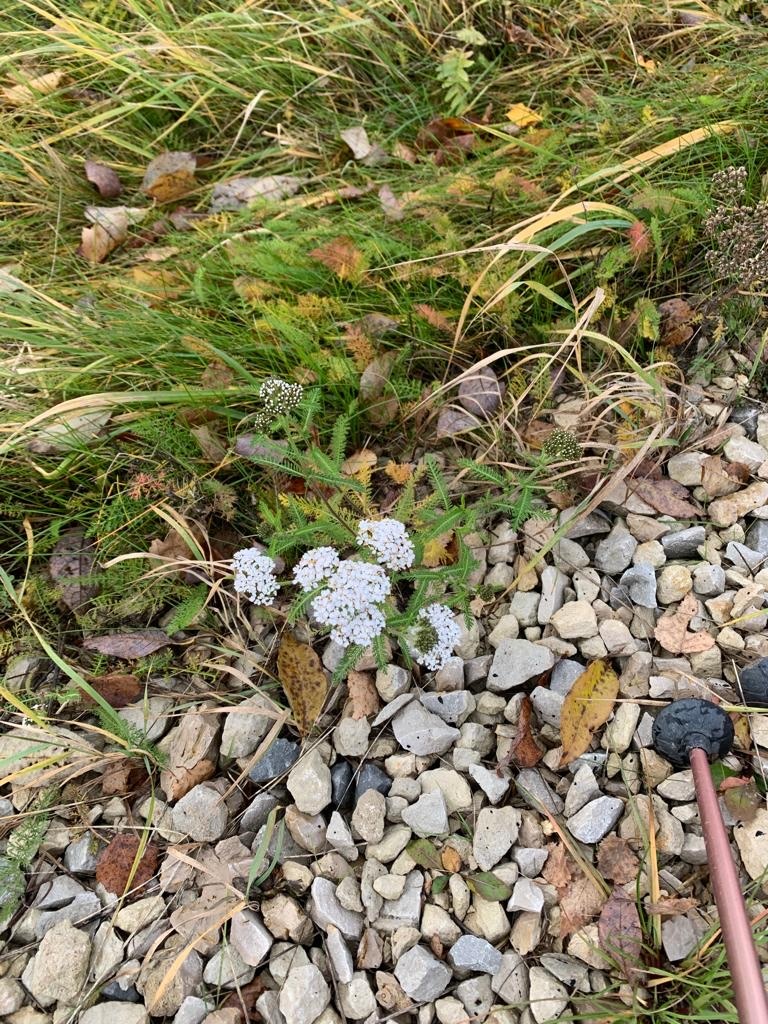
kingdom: Plantae
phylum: Tracheophyta
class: Magnoliopsida
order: Asterales
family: Asteraceae
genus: Achillea
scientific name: Achillea millefolium
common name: Yarrow
